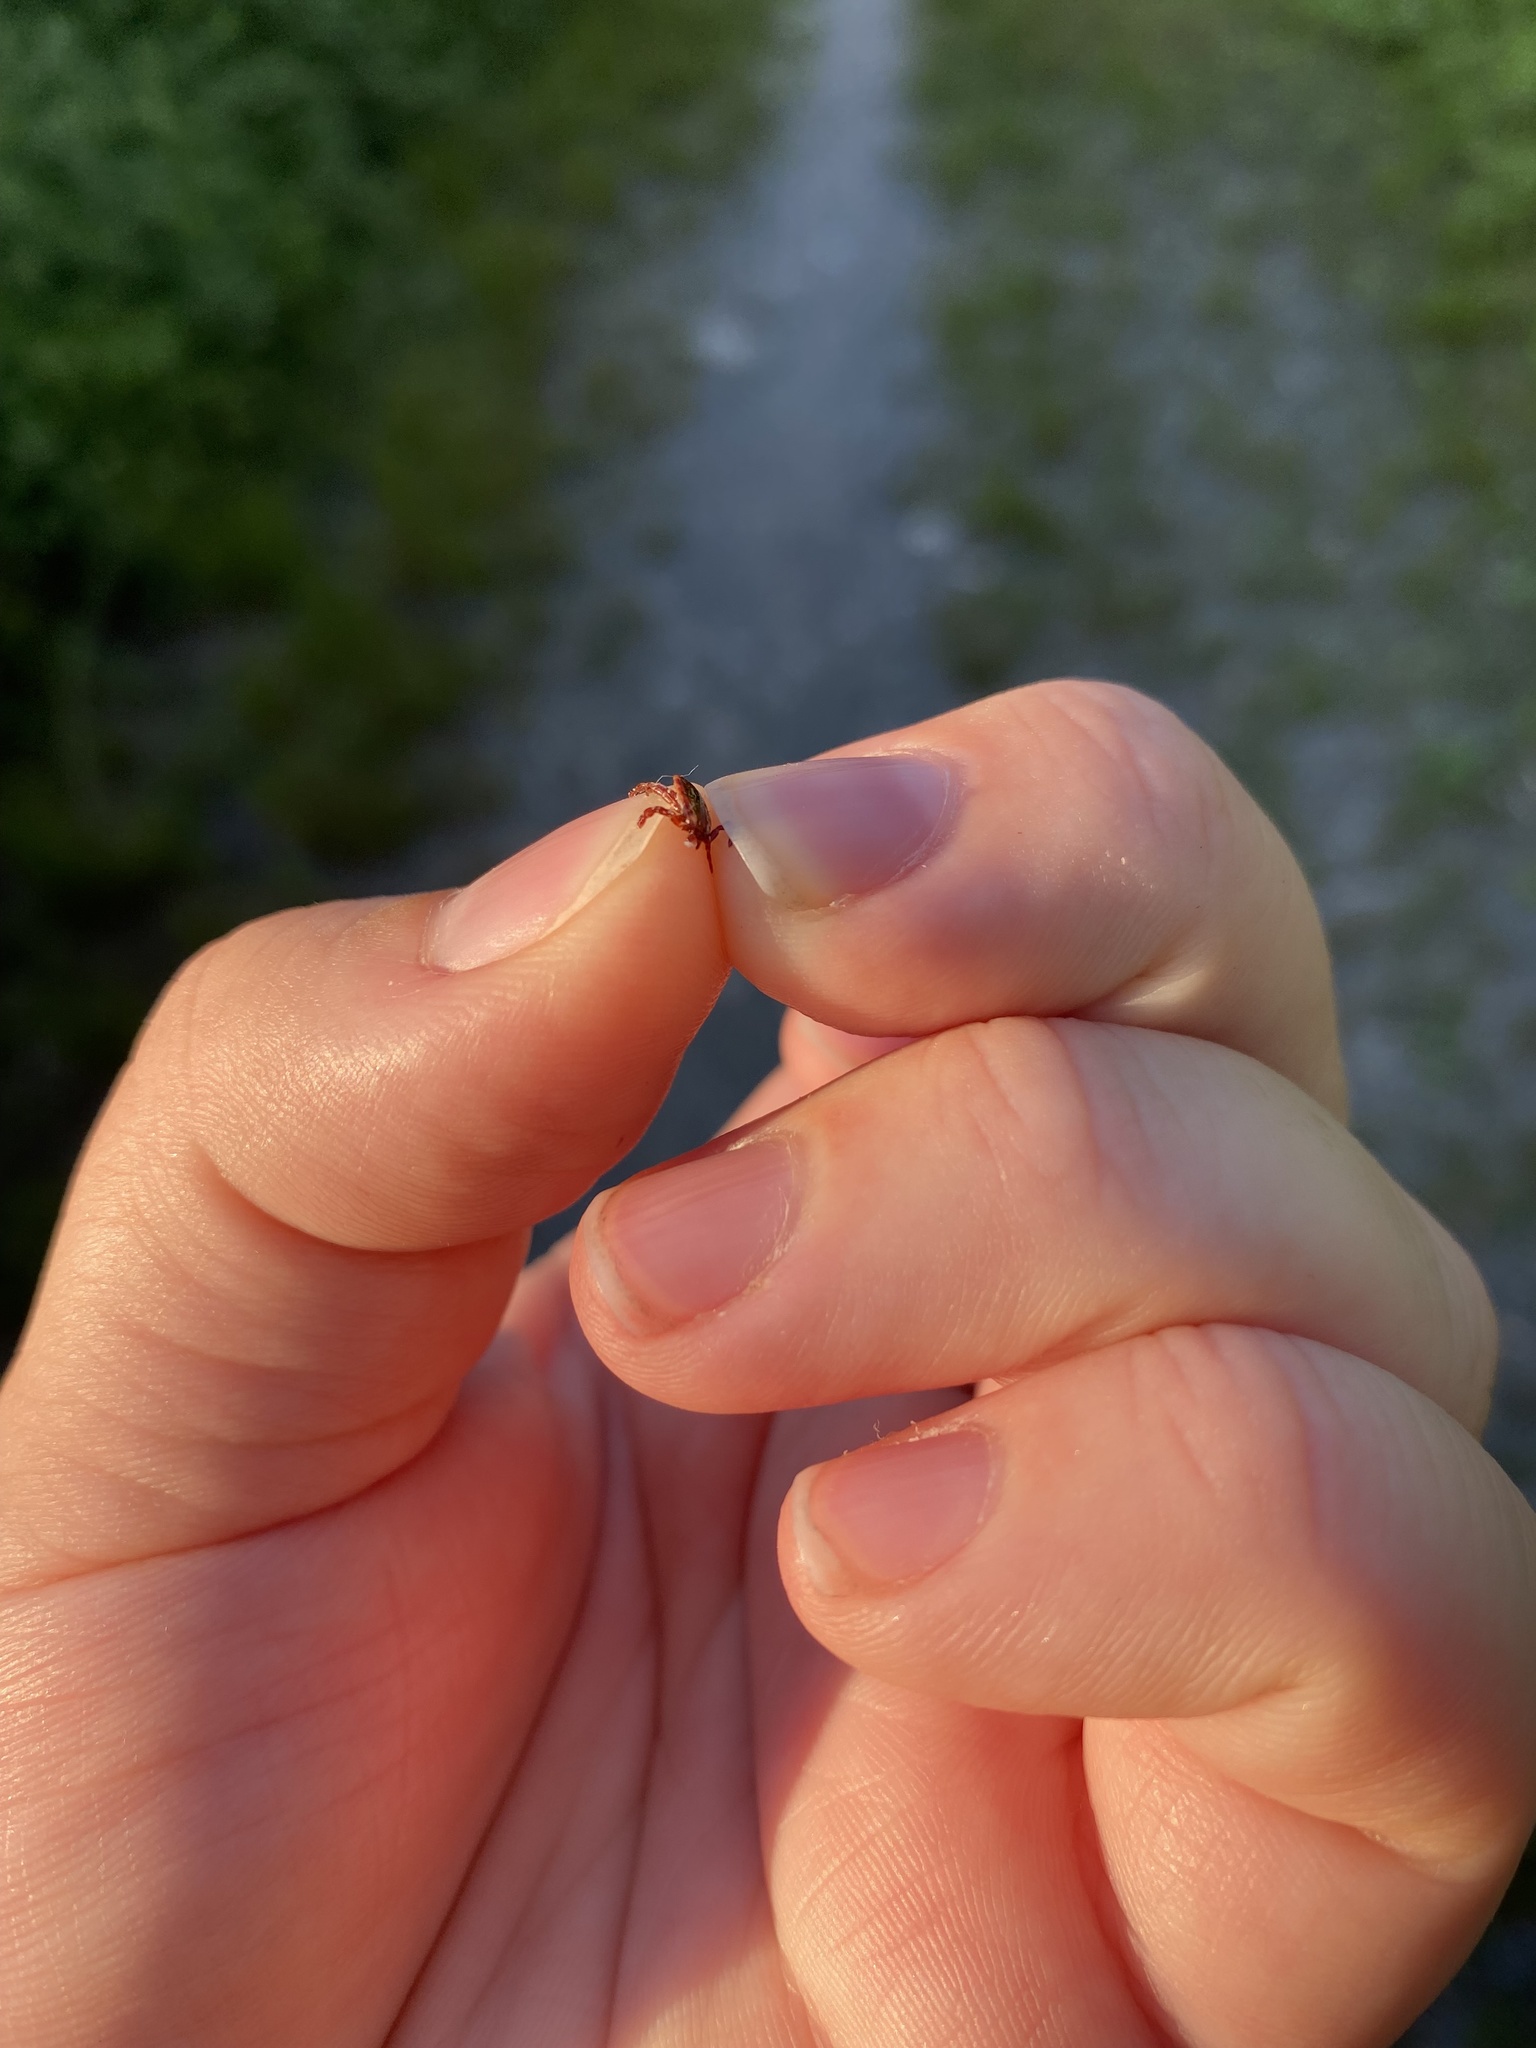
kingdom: Animalia
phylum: Arthropoda
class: Arachnida
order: Ixodida
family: Ixodidae
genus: Dermacentor
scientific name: Dermacentor variabilis
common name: American dog tick
